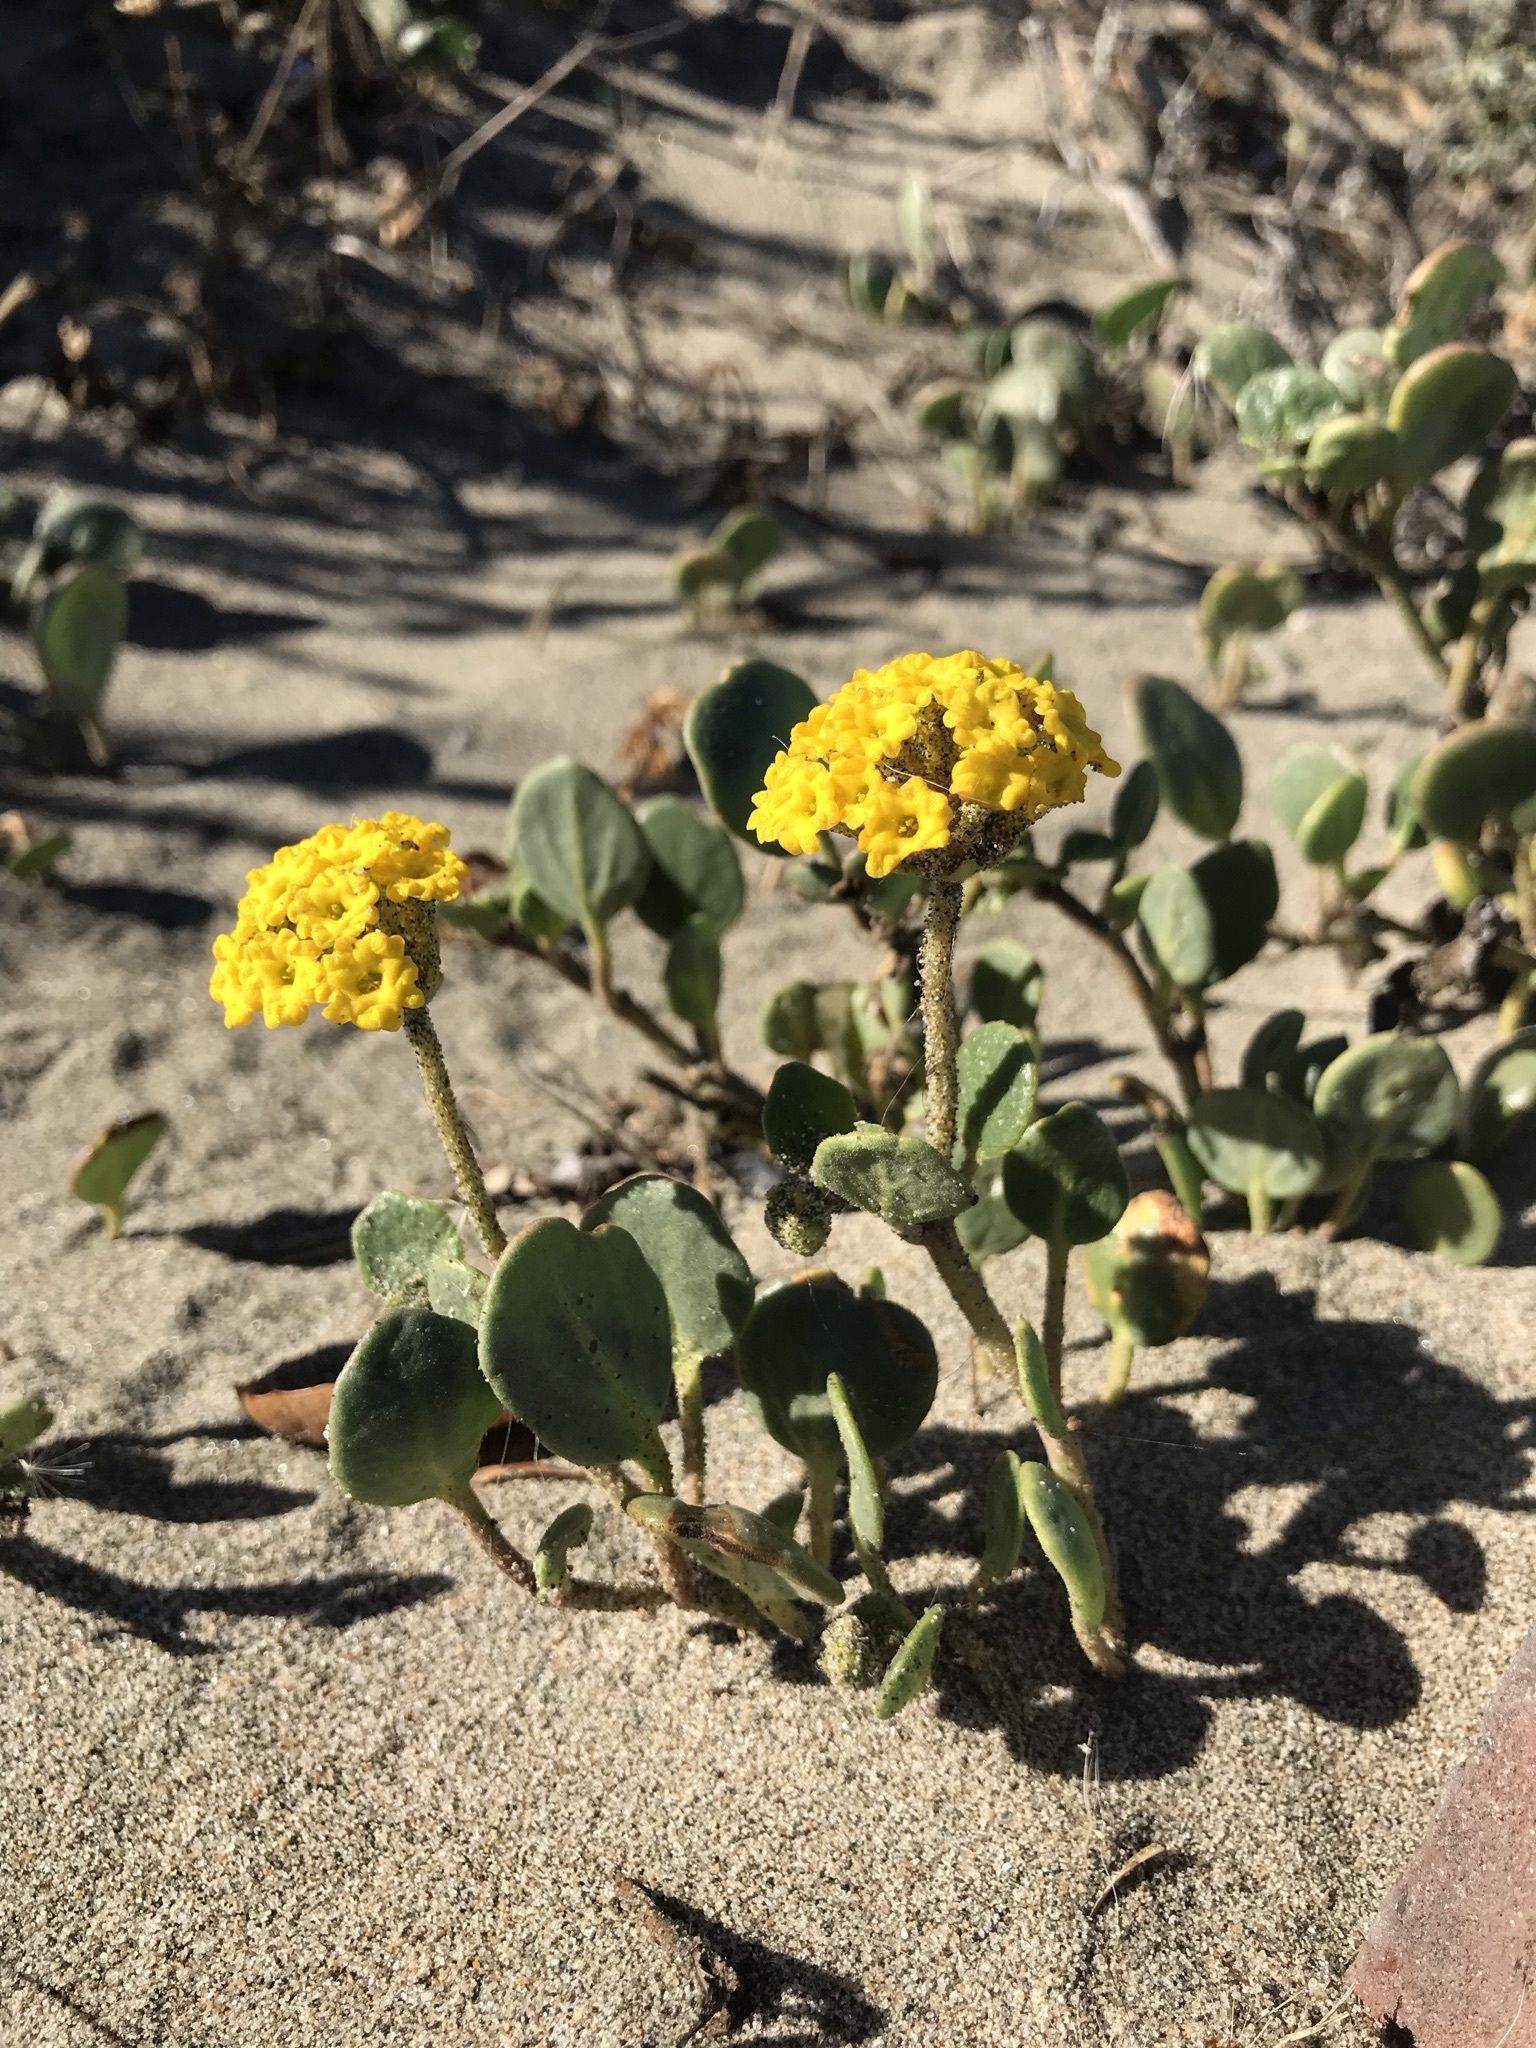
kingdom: Plantae
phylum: Tracheophyta
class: Magnoliopsida
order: Caryophyllales
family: Nyctaginaceae
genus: Abronia
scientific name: Abronia latifolia
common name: Yellow sand-verbena
